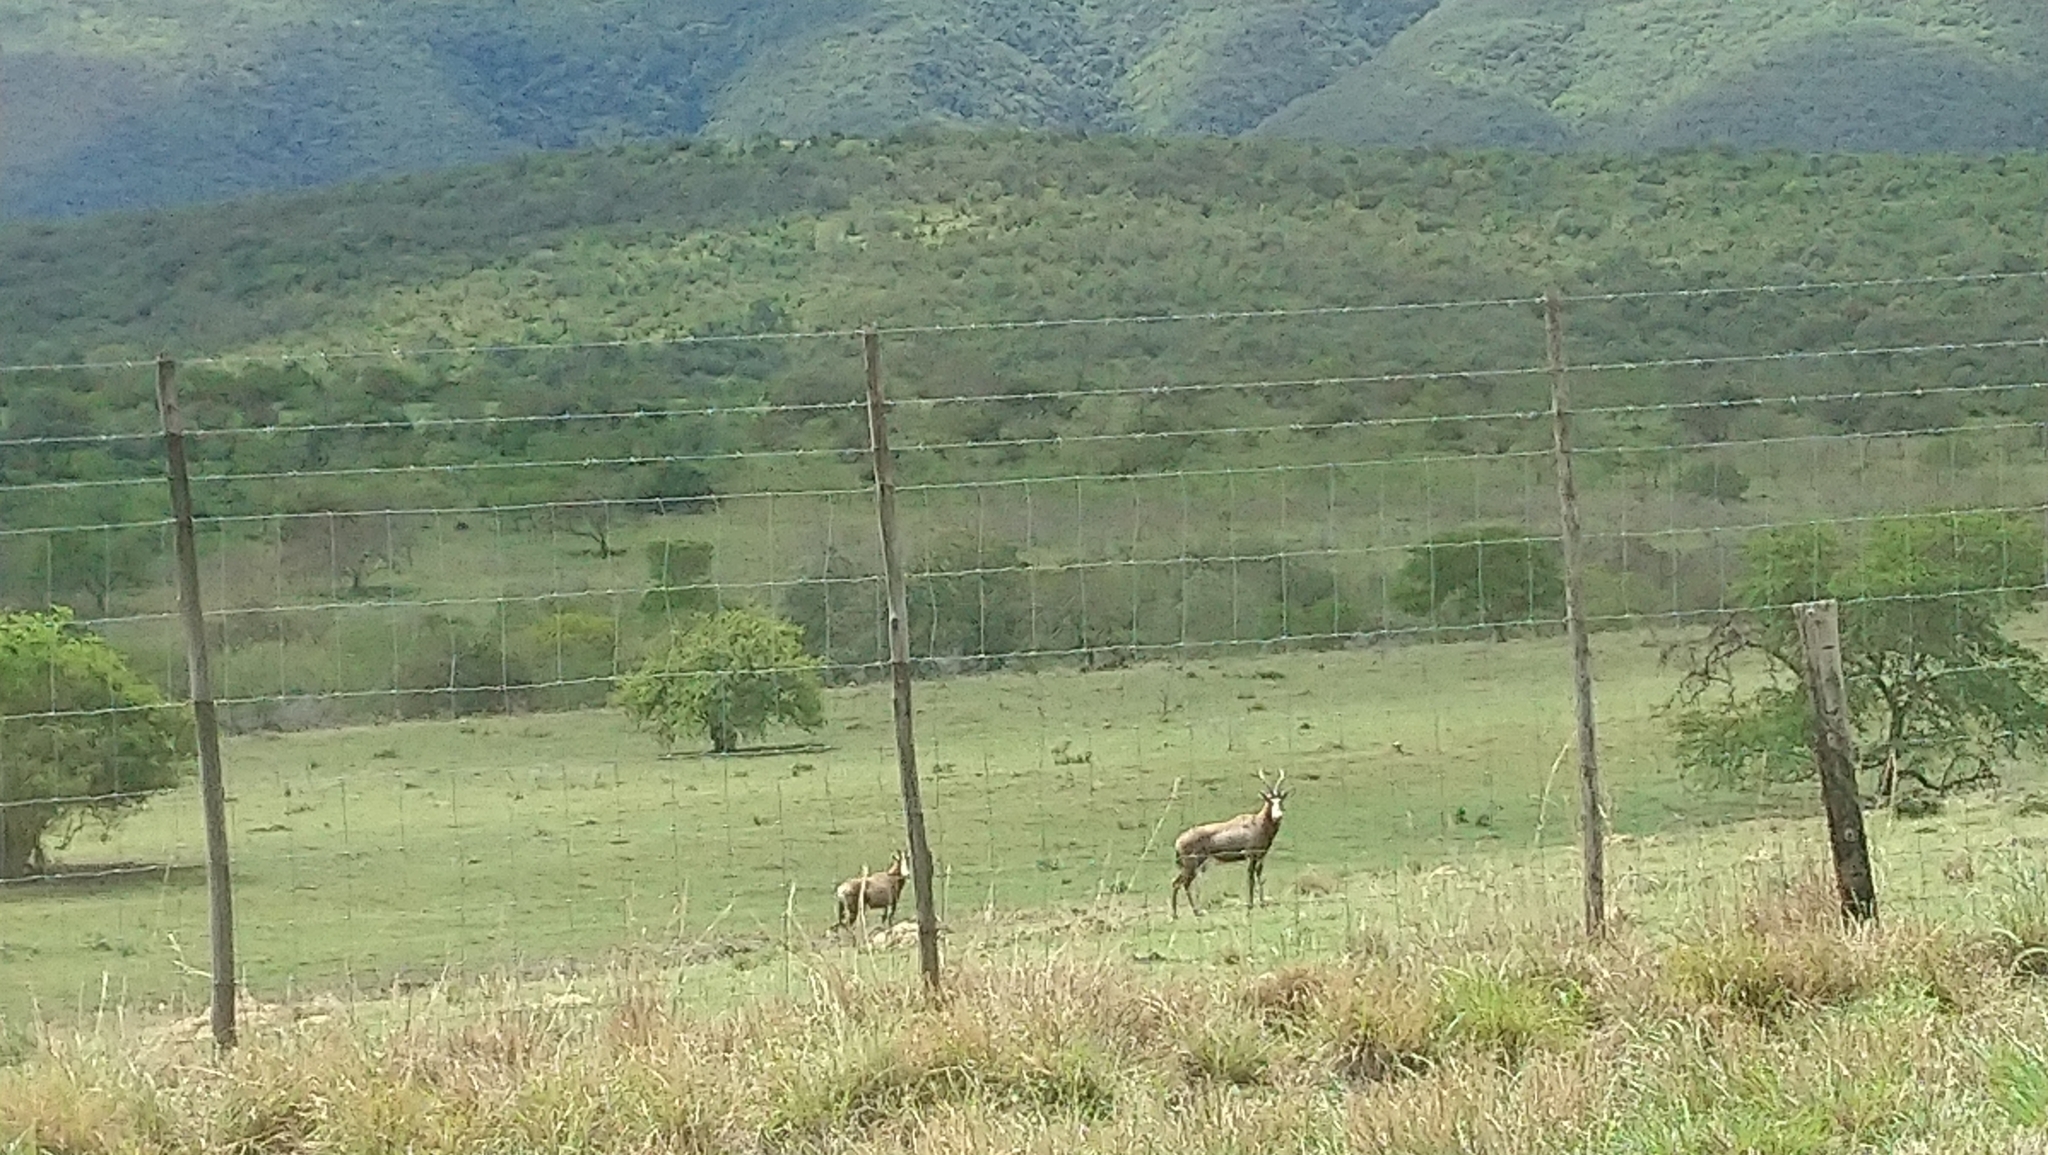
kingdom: Animalia
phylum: Chordata
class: Mammalia
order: Artiodactyla
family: Bovidae
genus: Damaliscus
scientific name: Damaliscus pygargus
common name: Bontebok
